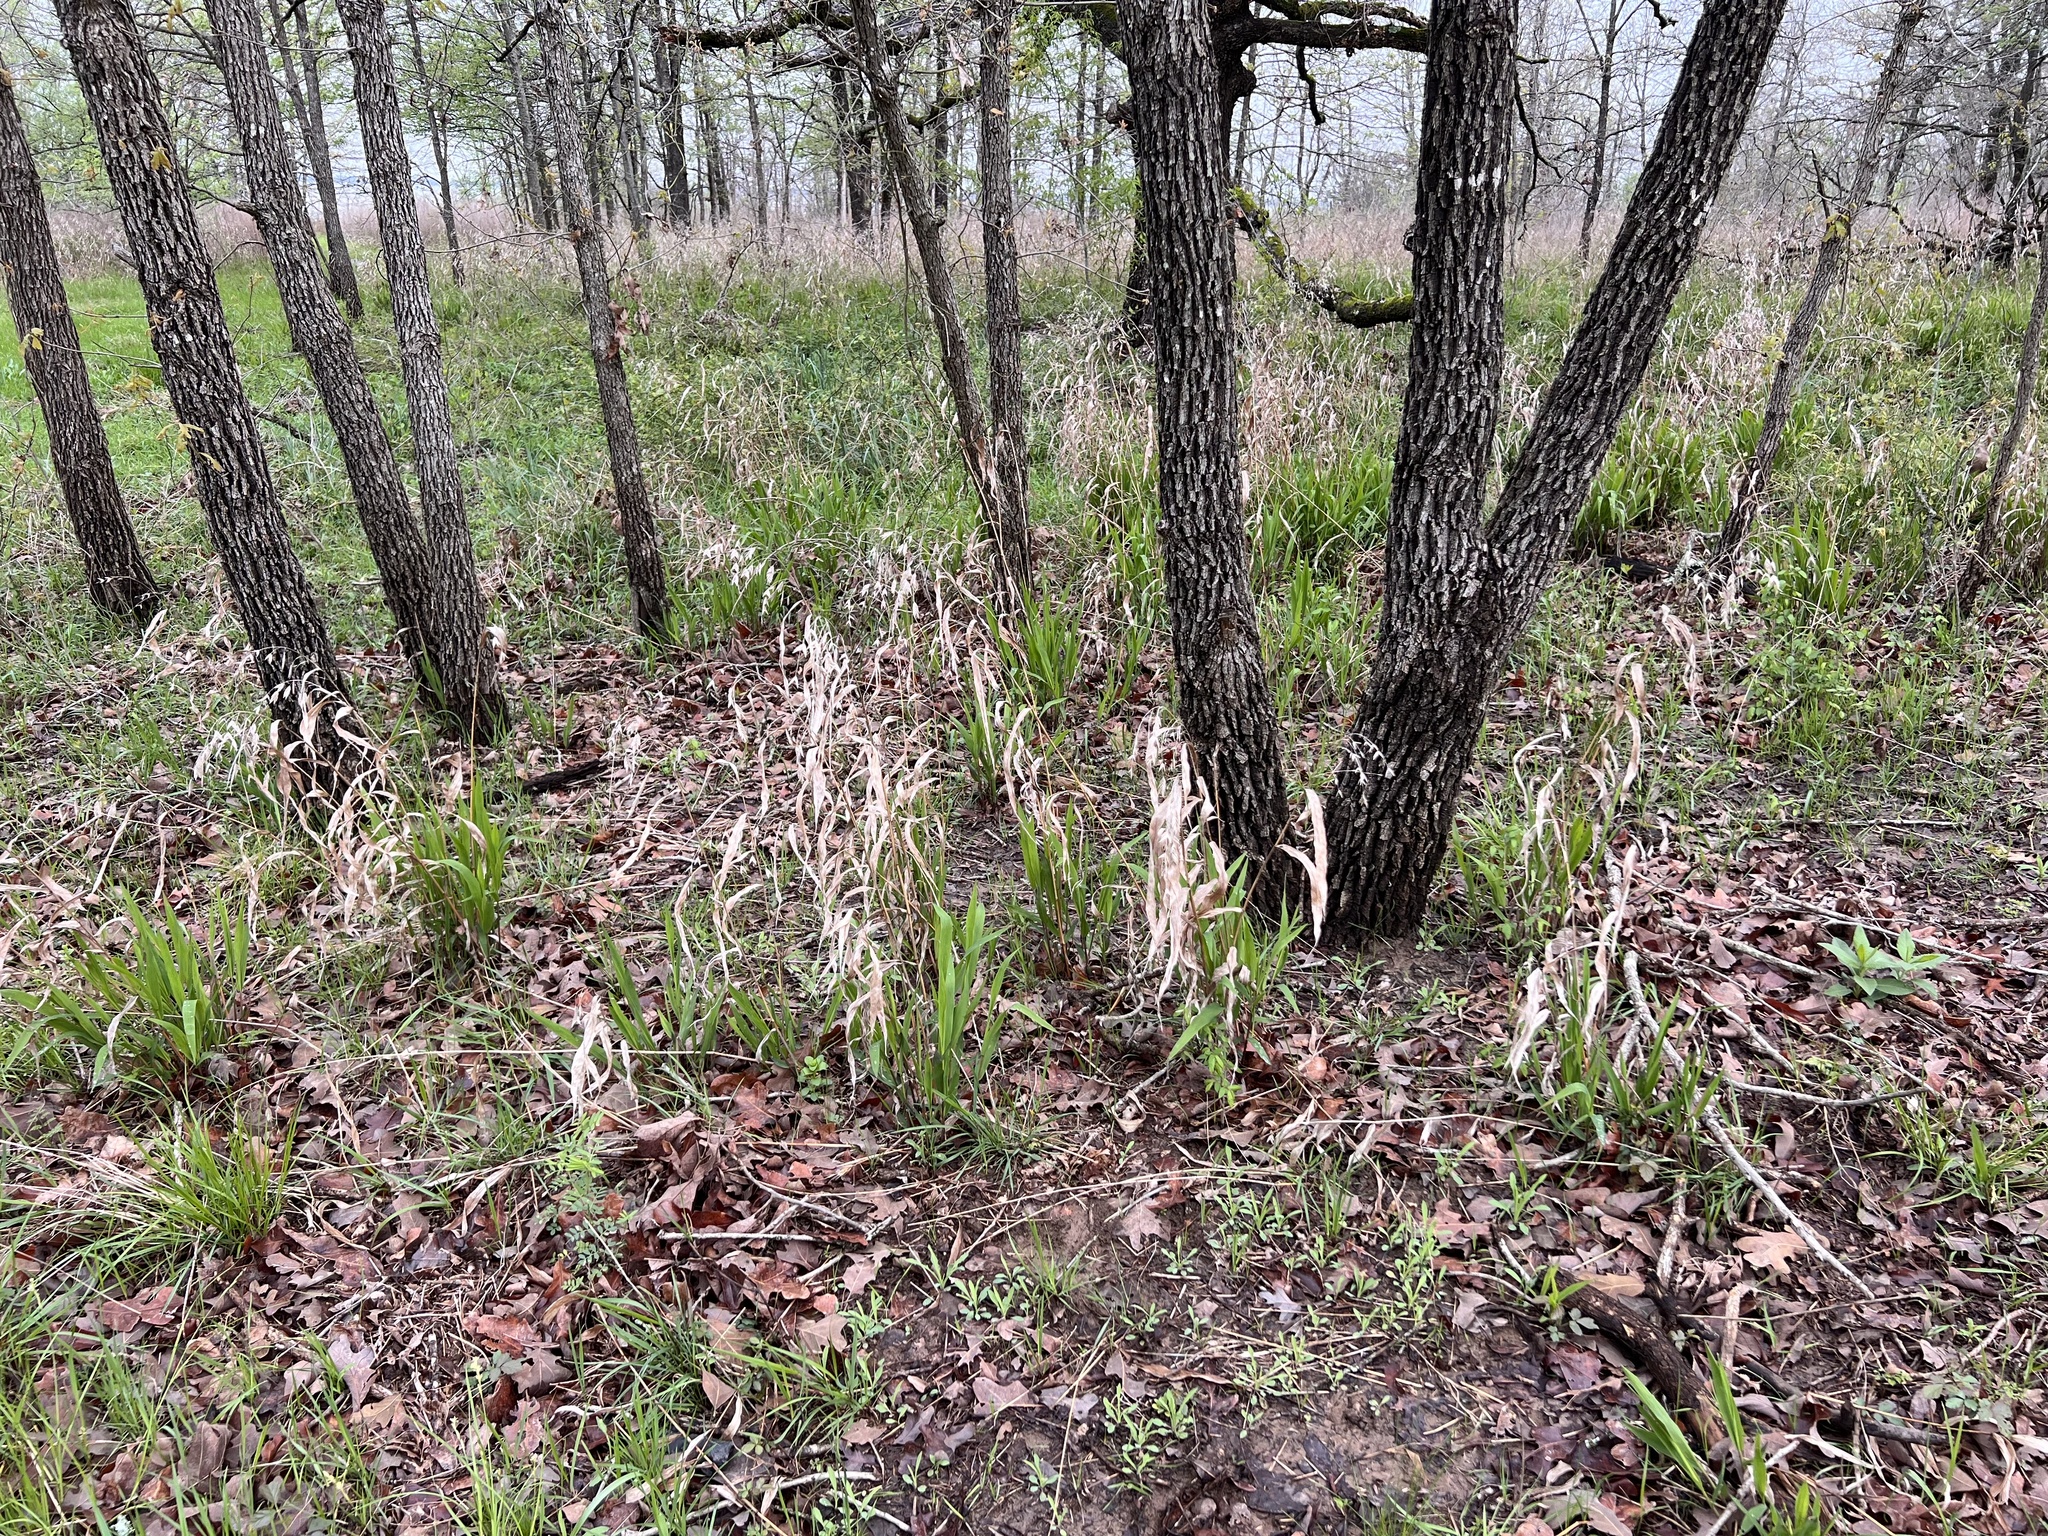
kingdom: Plantae
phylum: Tracheophyta
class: Liliopsida
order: Poales
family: Poaceae
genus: Chasmanthium
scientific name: Chasmanthium latifolium
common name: Broad-leaved chasmanthium
